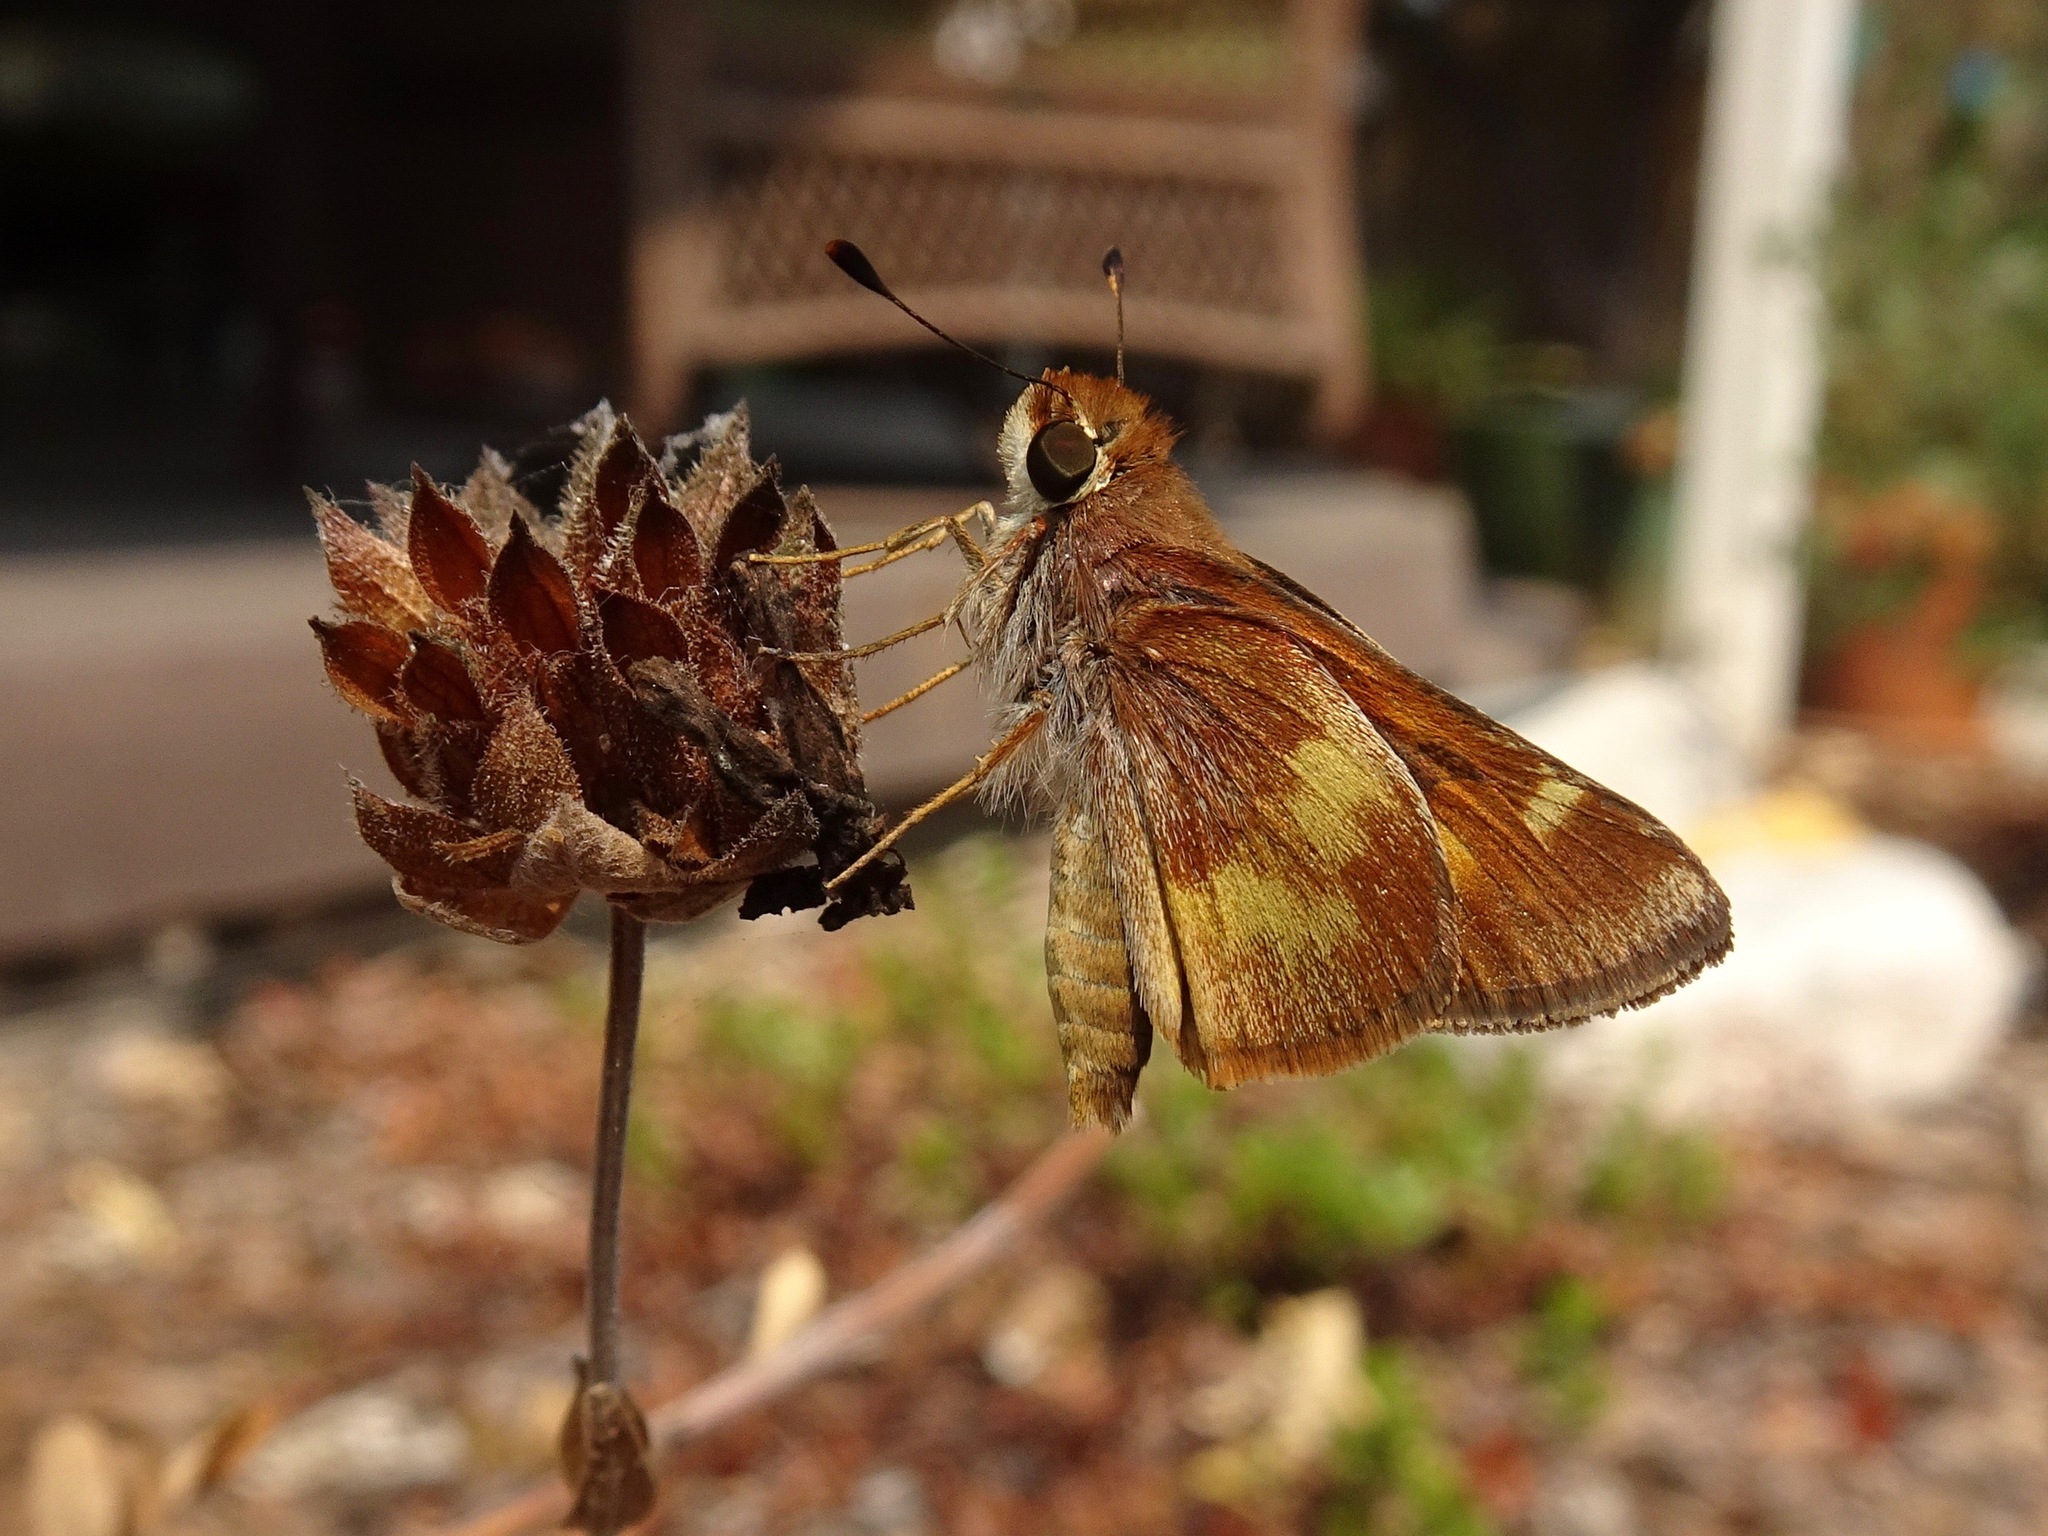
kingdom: Animalia
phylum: Arthropoda
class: Insecta
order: Lepidoptera
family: Hesperiidae
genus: Lon
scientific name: Lon melane
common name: Umber skipper
